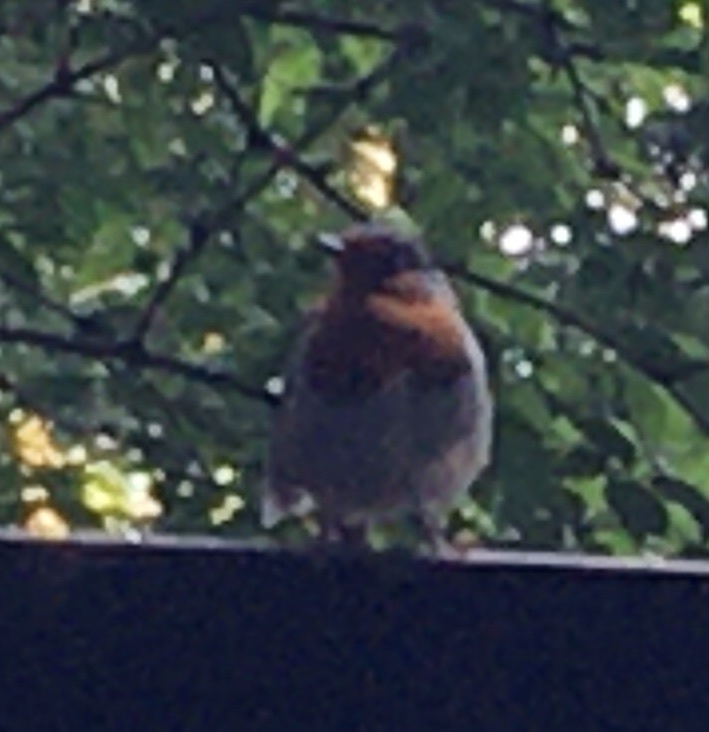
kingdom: Animalia
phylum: Chordata
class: Aves
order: Passeriformes
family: Muscicapidae
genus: Erithacus
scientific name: Erithacus rubecula
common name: European robin
